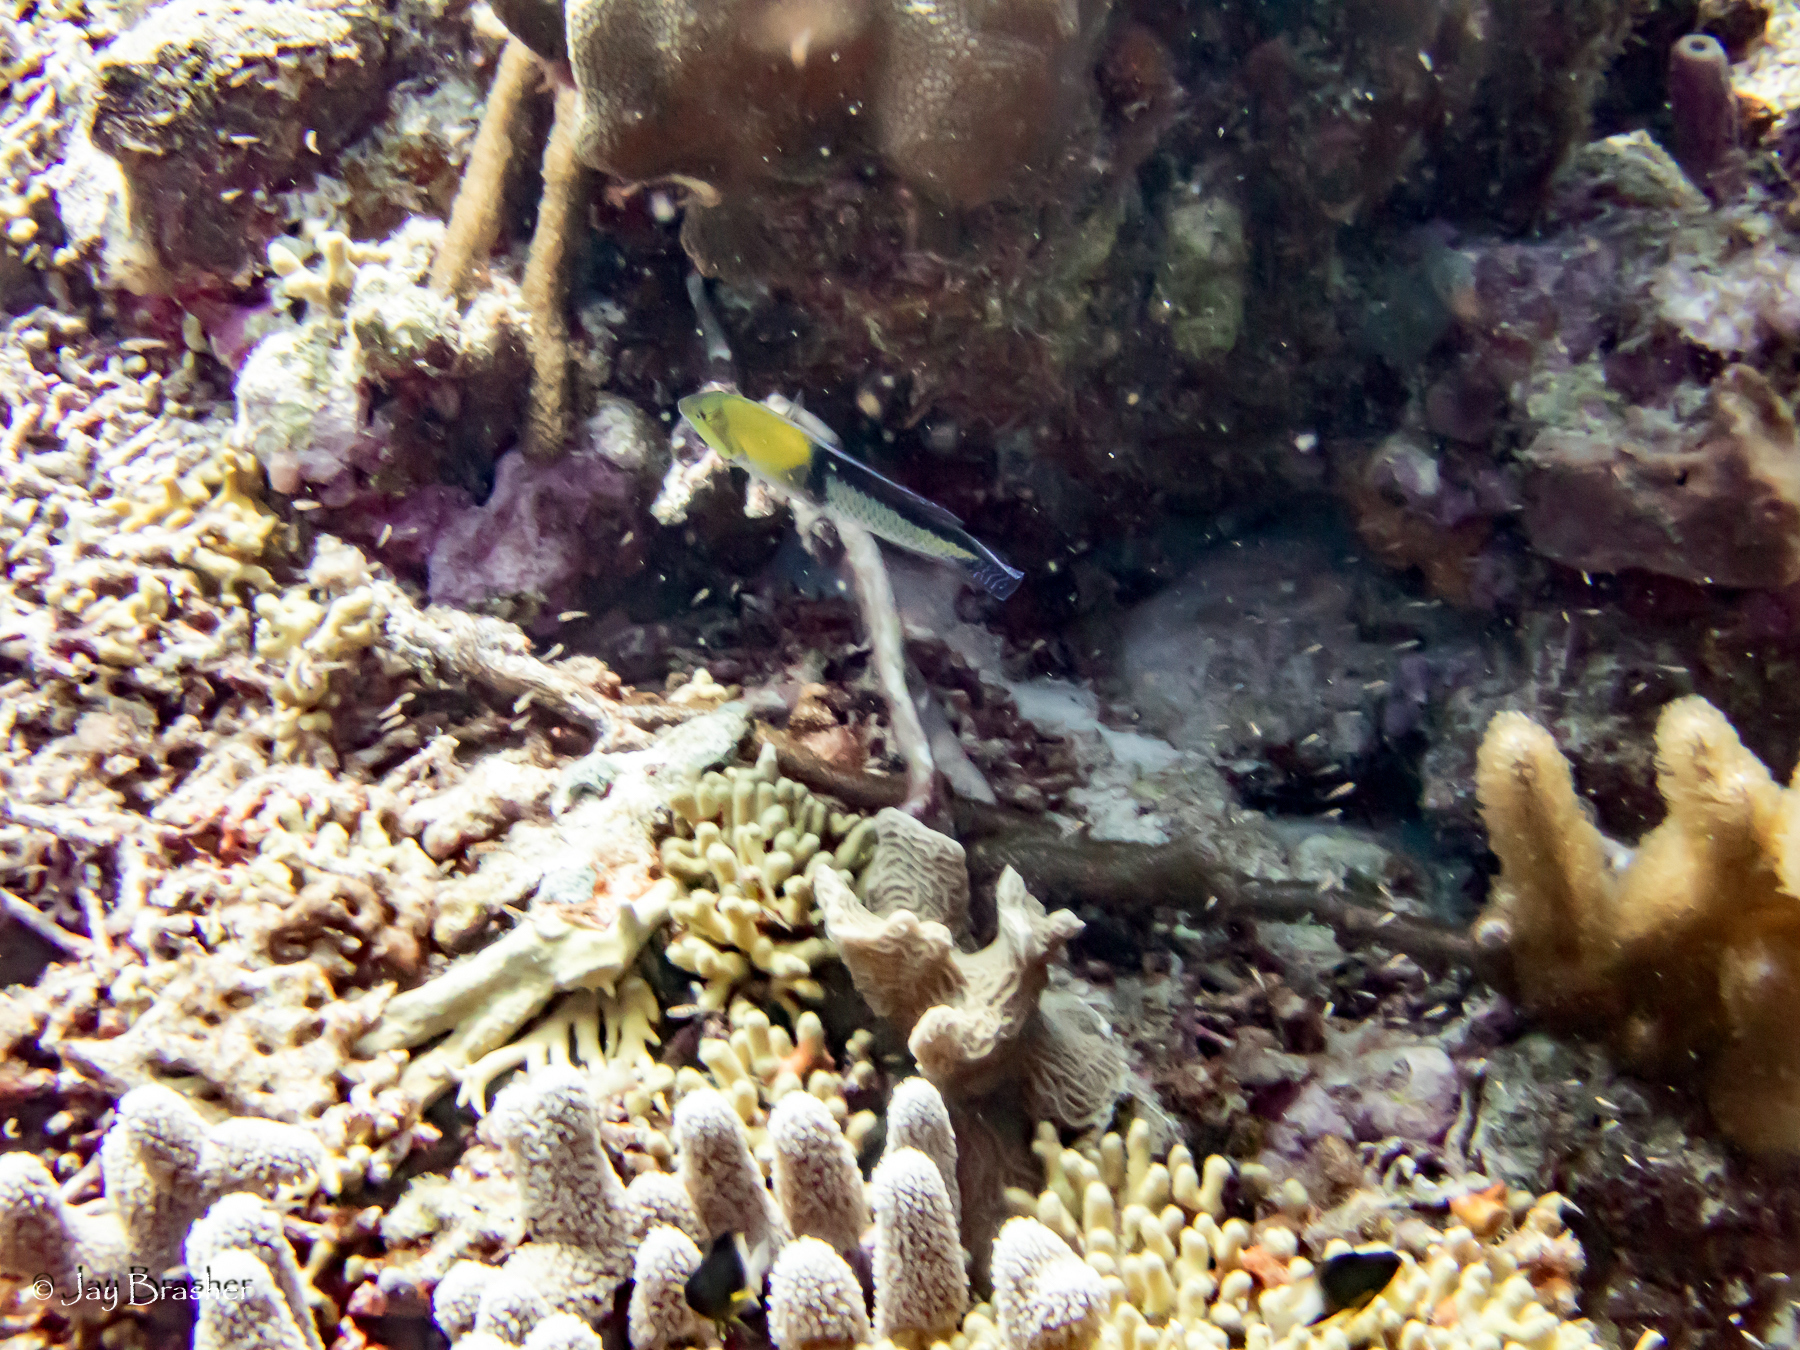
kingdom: Animalia
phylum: Chordata
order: Perciformes
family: Labridae
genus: Halichoeres
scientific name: Halichoeres garnoti
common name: Yellowhead wrasse
